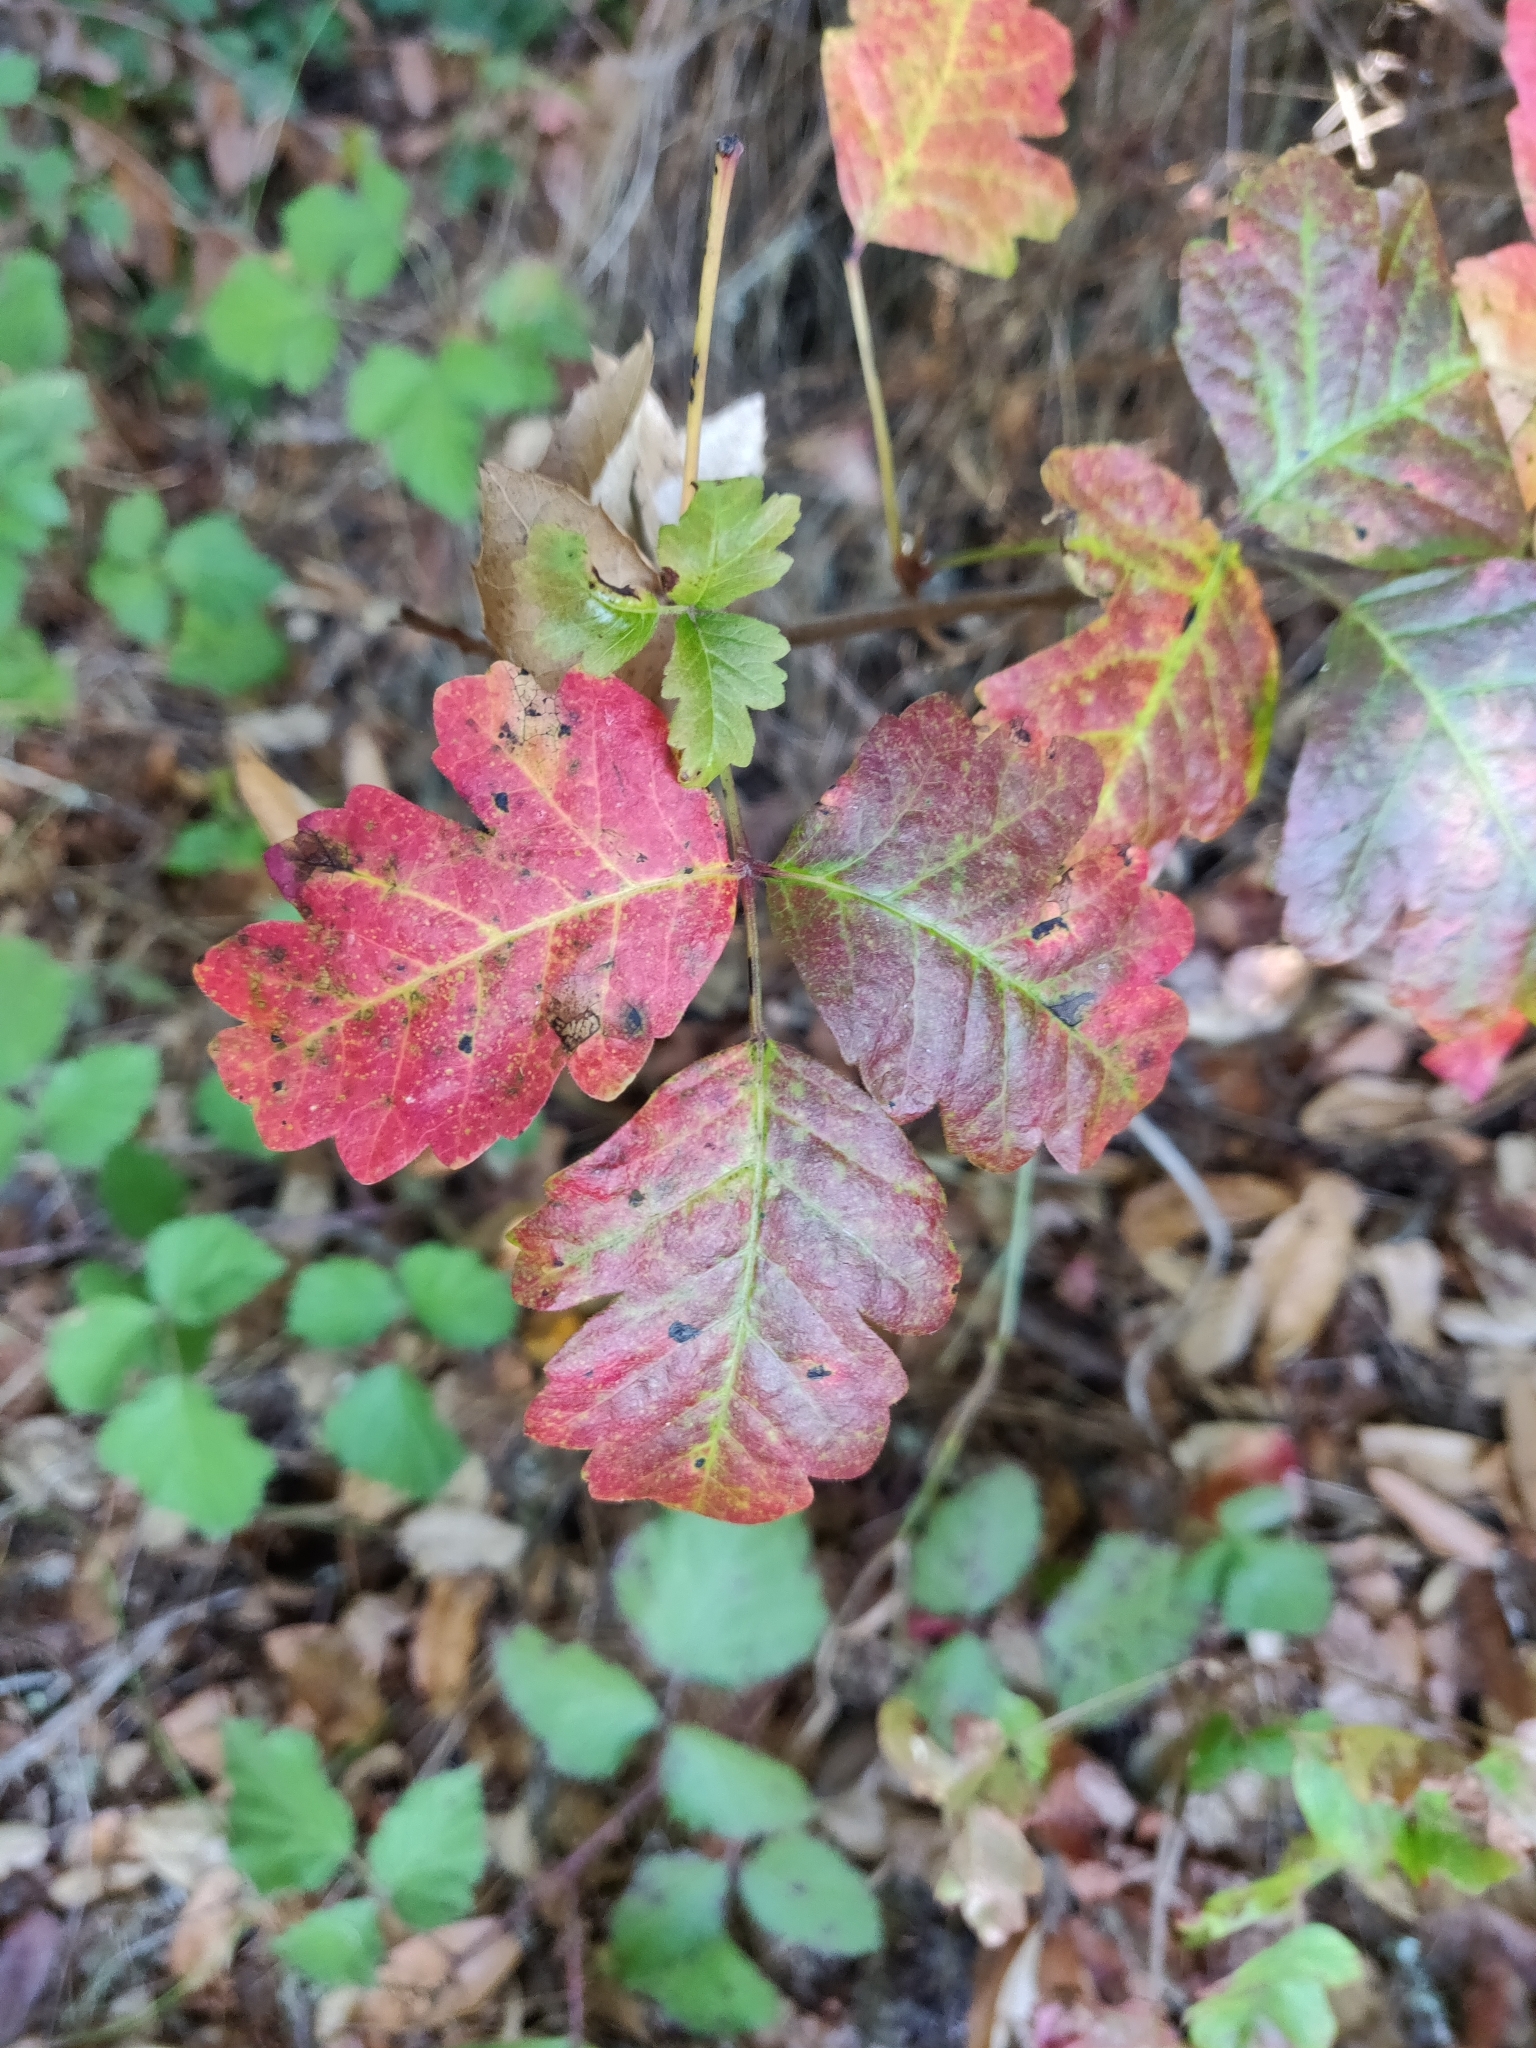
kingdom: Plantae
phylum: Tracheophyta
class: Magnoliopsida
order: Sapindales
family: Anacardiaceae
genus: Toxicodendron
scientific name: Toxicodendron diversilobum
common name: Pacific poison-oak
